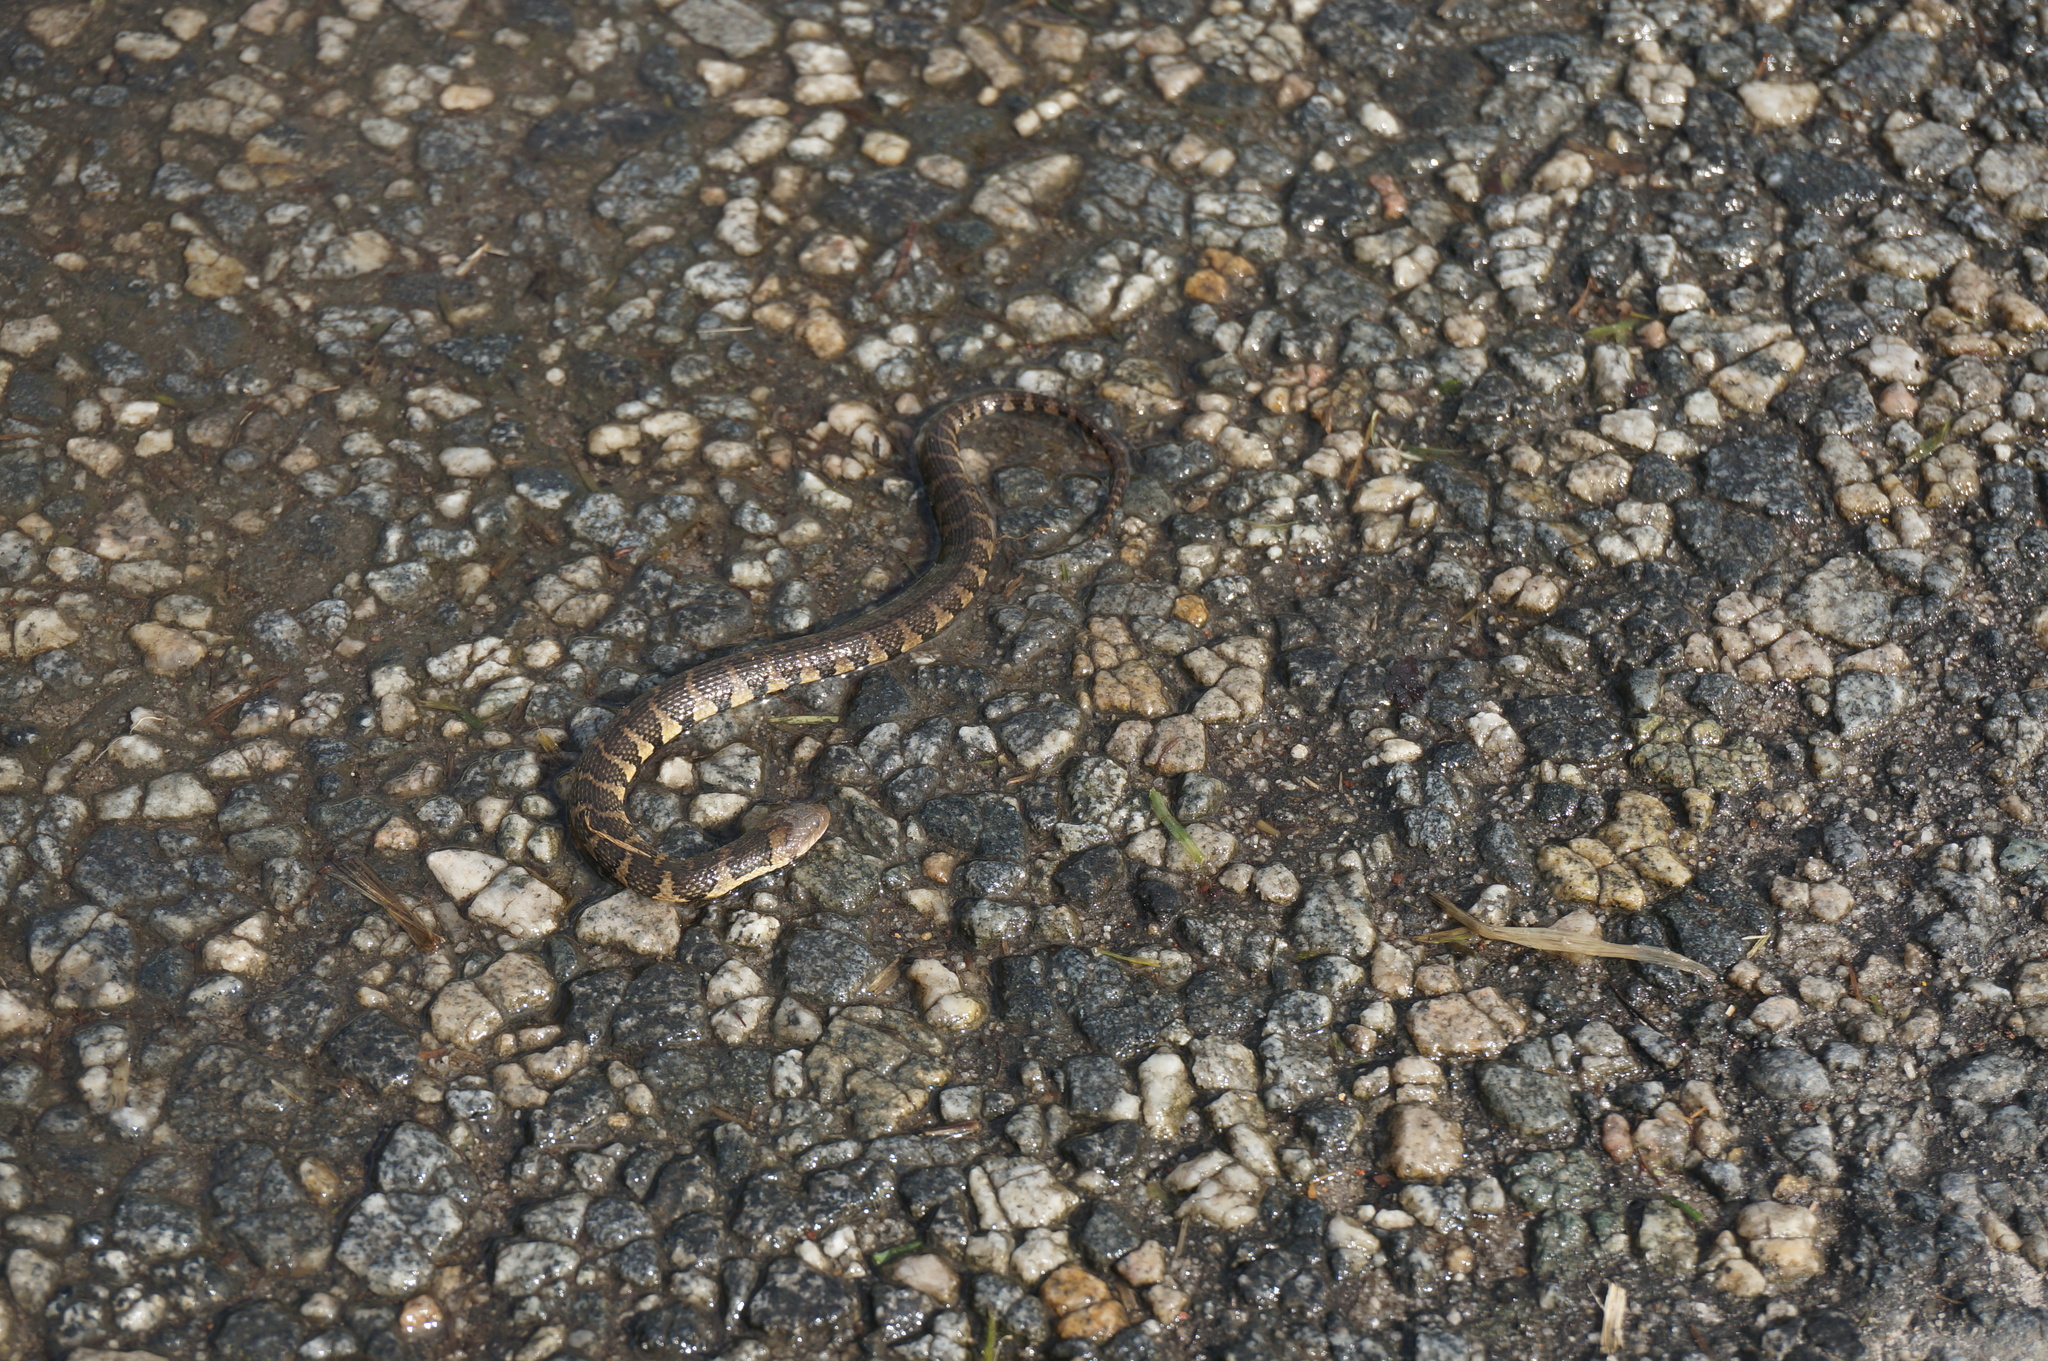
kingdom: Animalia
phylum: Chordata
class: Squamata
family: Colubridae
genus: Helicops
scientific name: Helicops angulatus
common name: Mountain keelback
